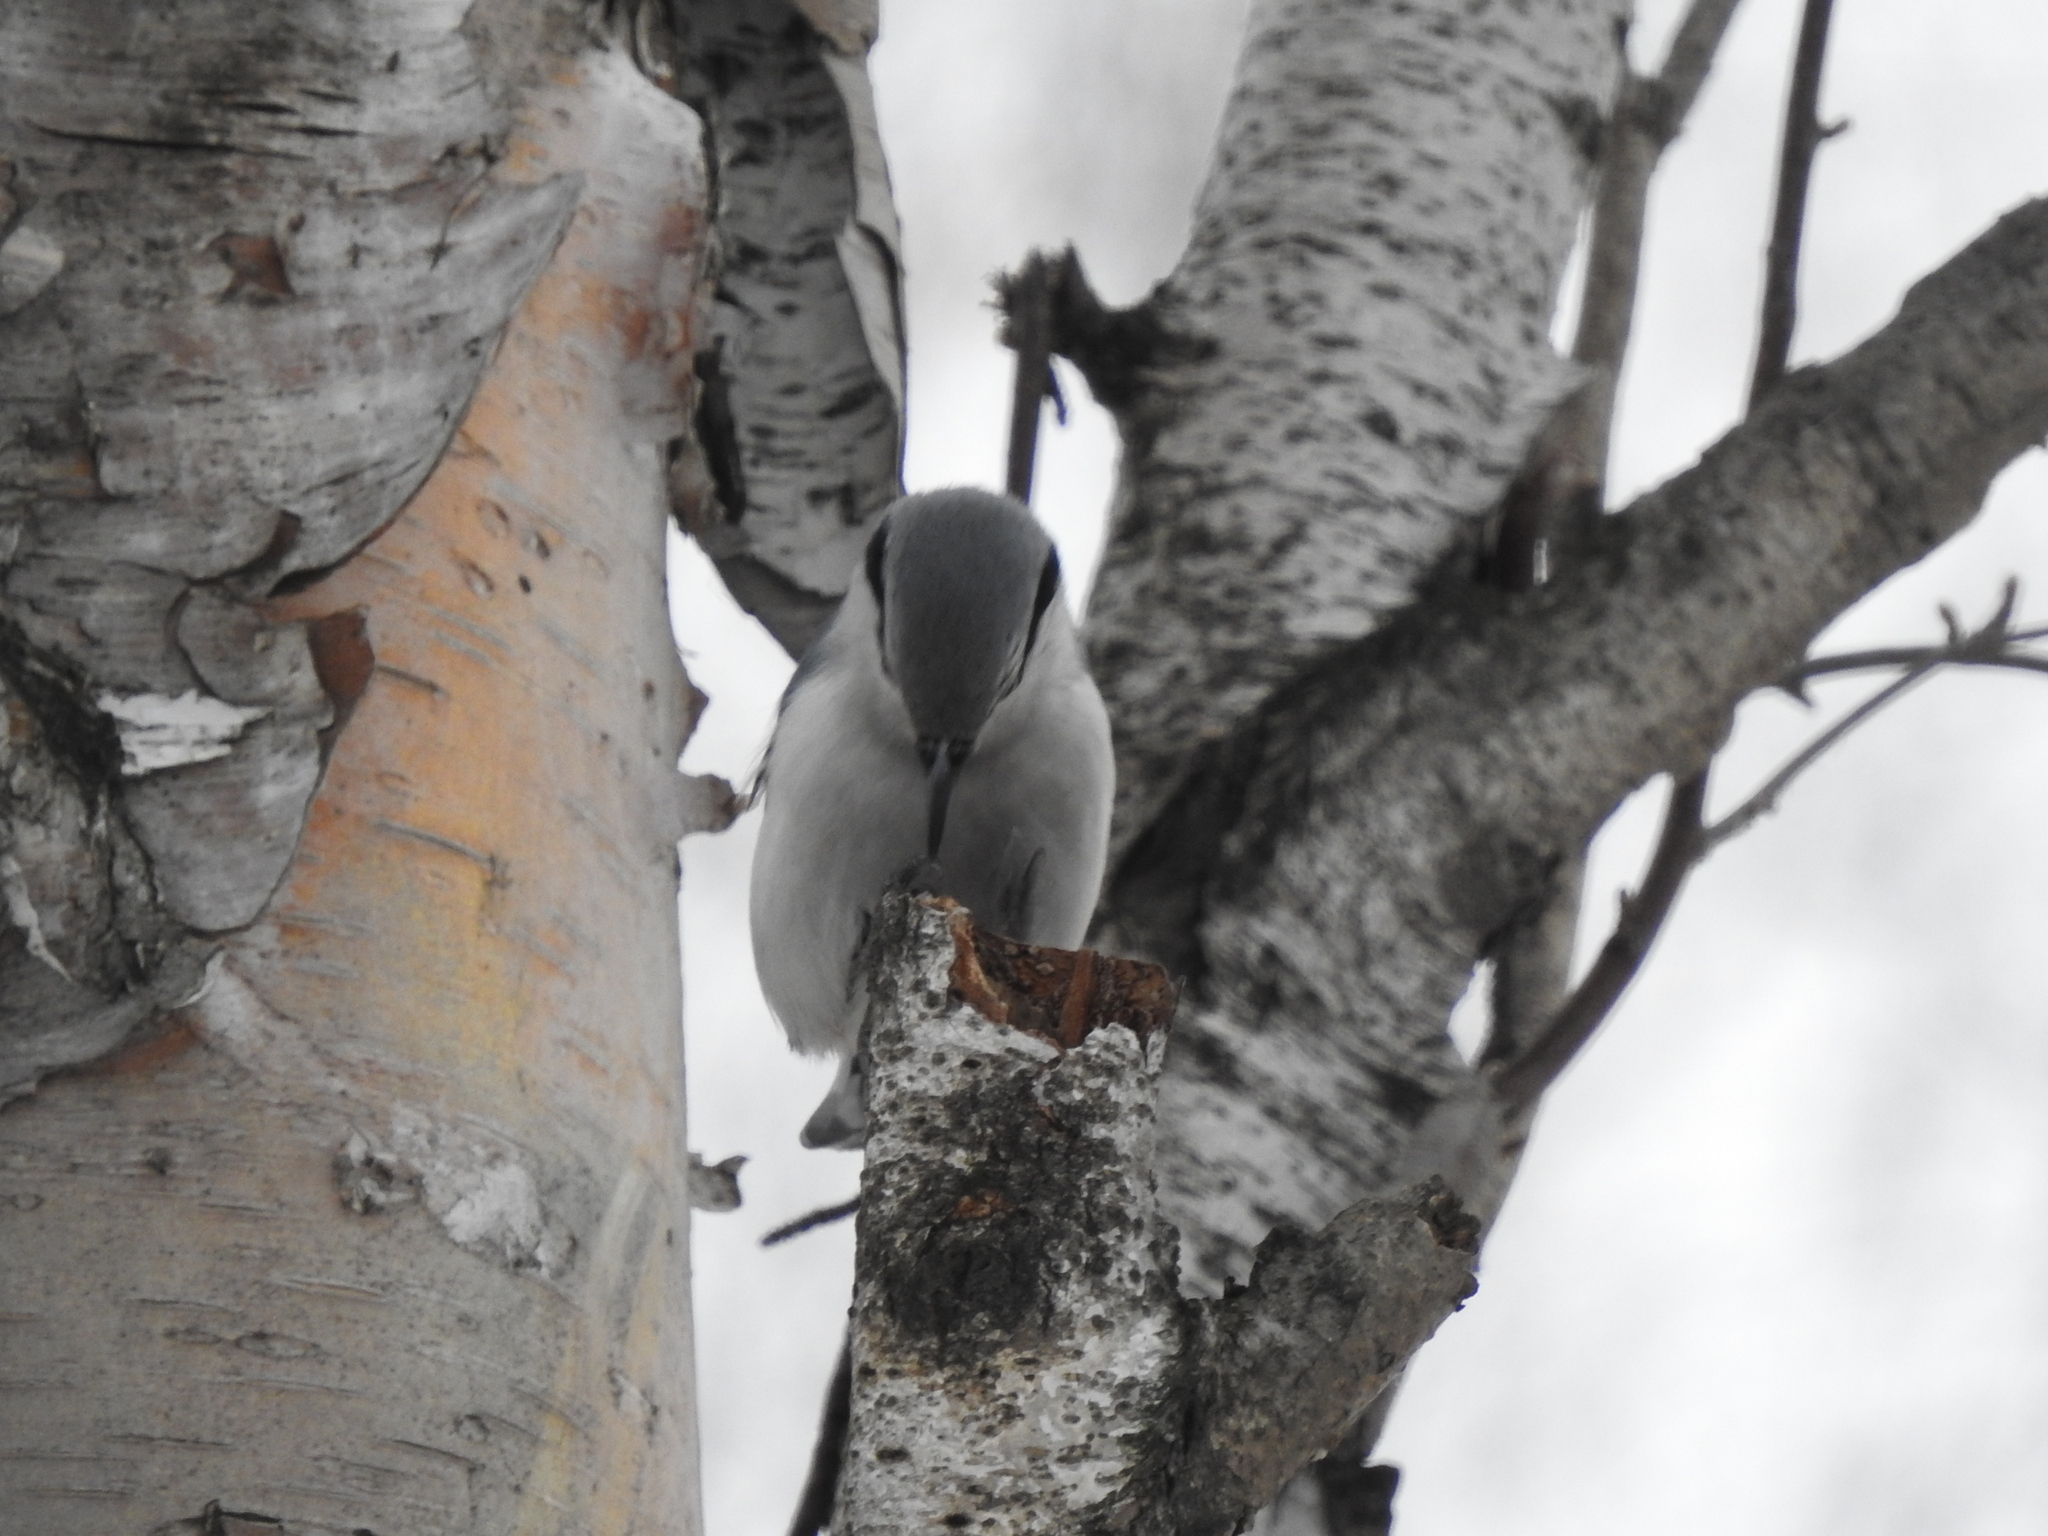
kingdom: Animalia
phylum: Chordata
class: Aves
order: Passeriformes
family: Sittidae
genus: Sitta
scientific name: Sitta europaea
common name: Eurasian nuthatch
